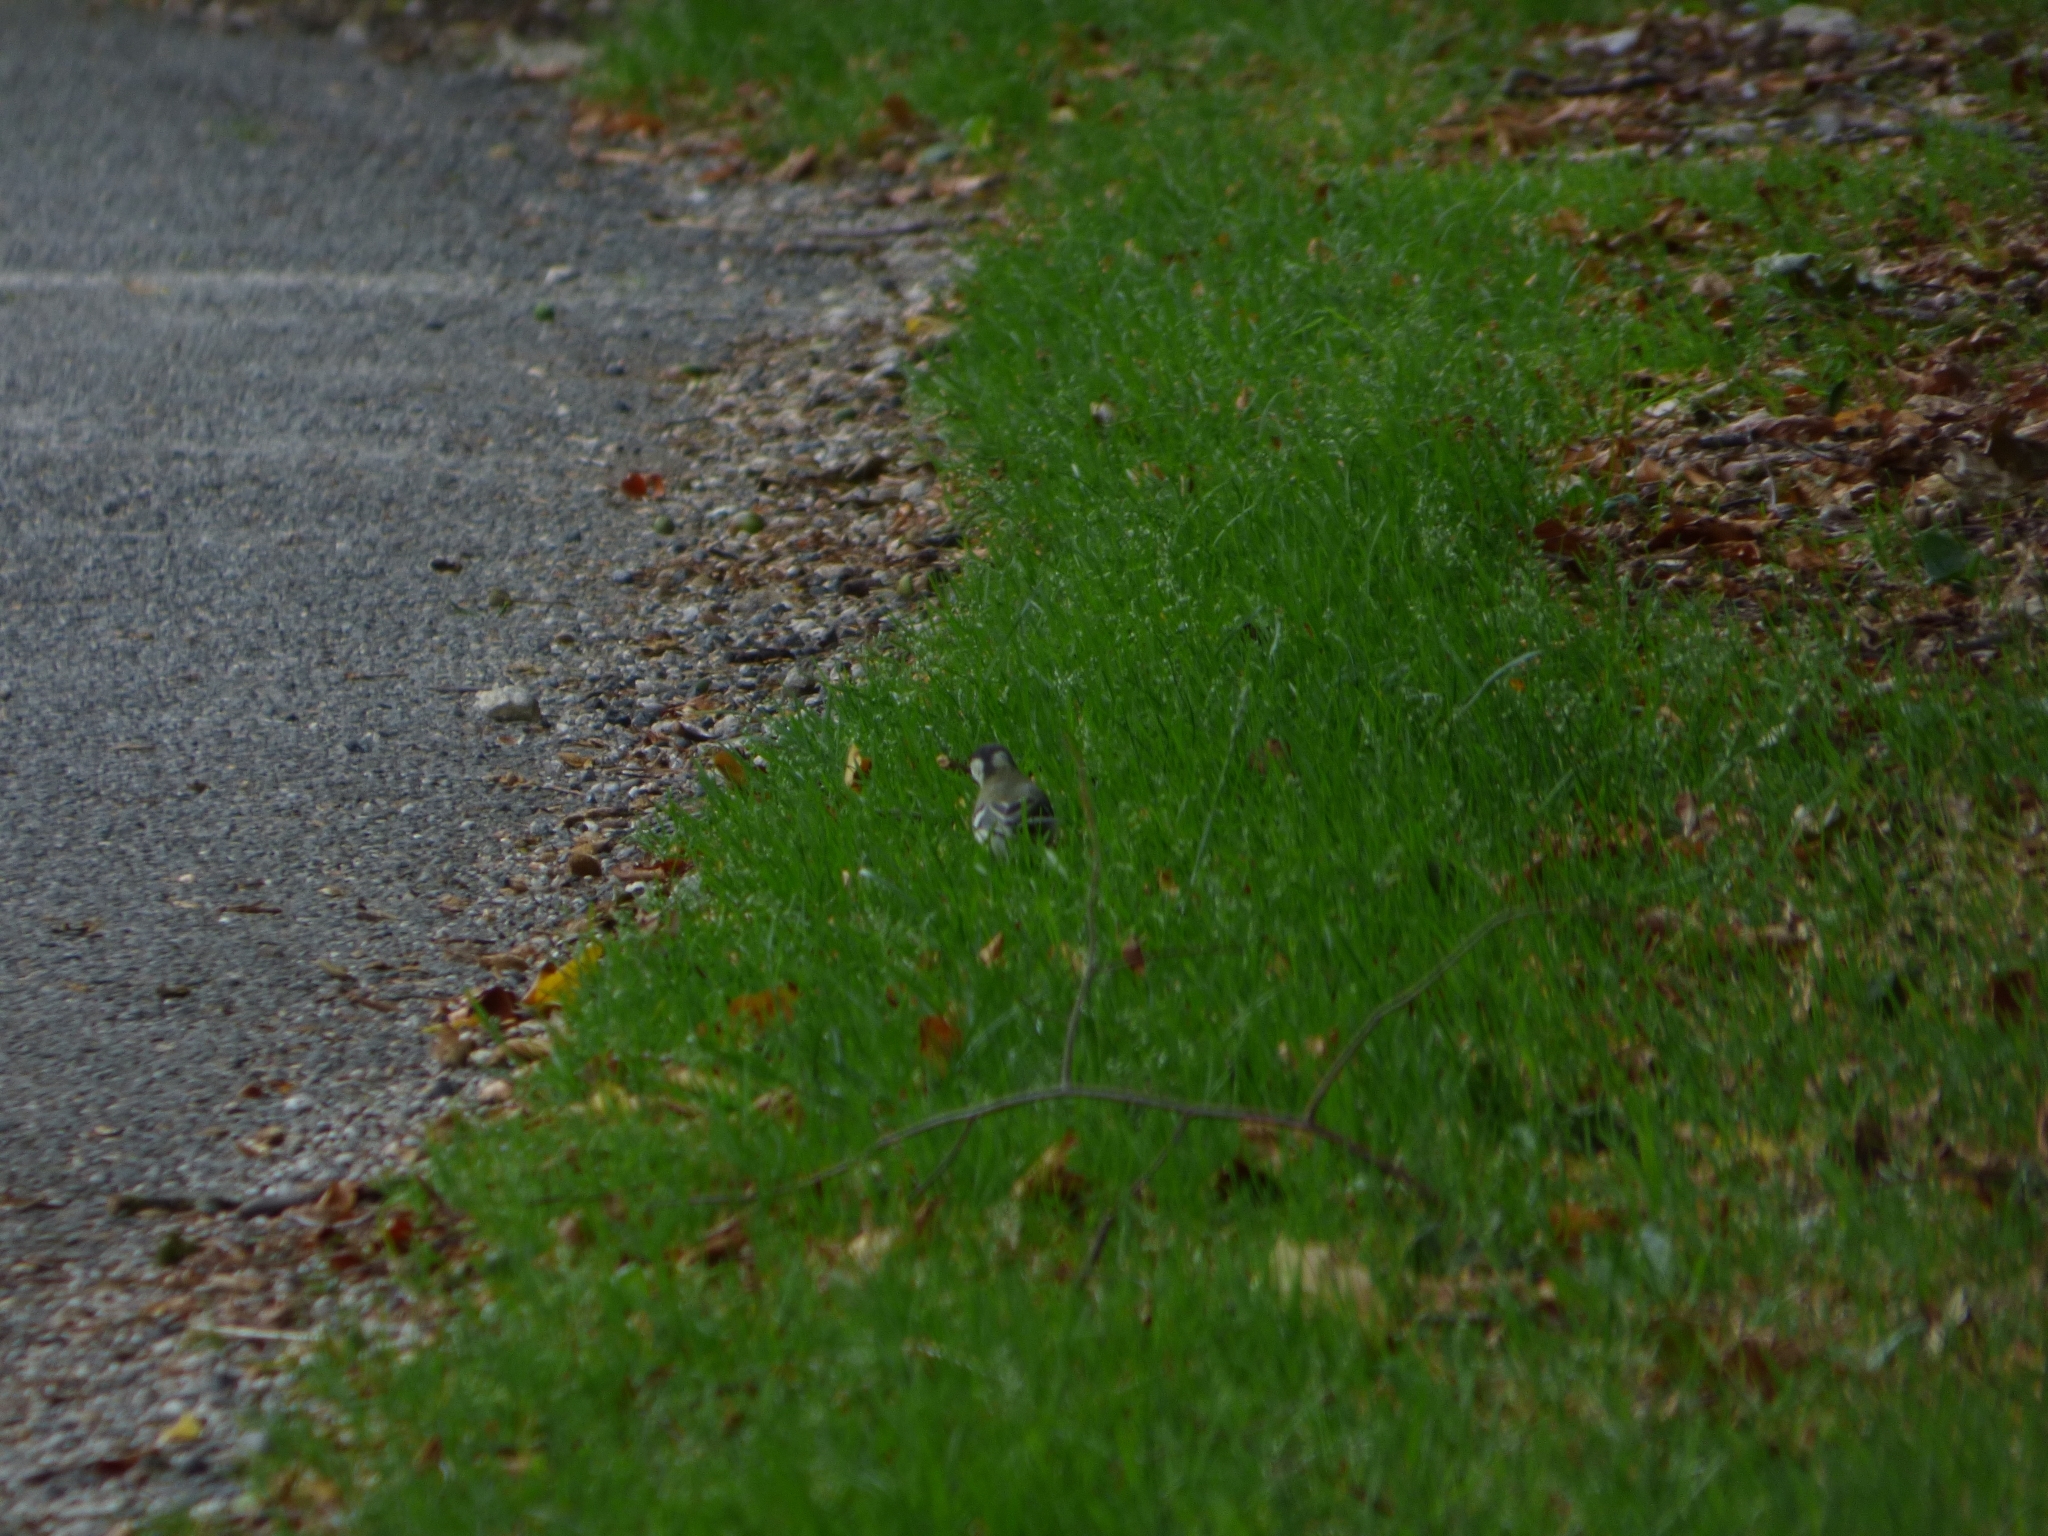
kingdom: Animalia
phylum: Chordata
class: Aves
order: Passeriformes
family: Paridae
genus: Parus
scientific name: Parus major
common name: Great tit
